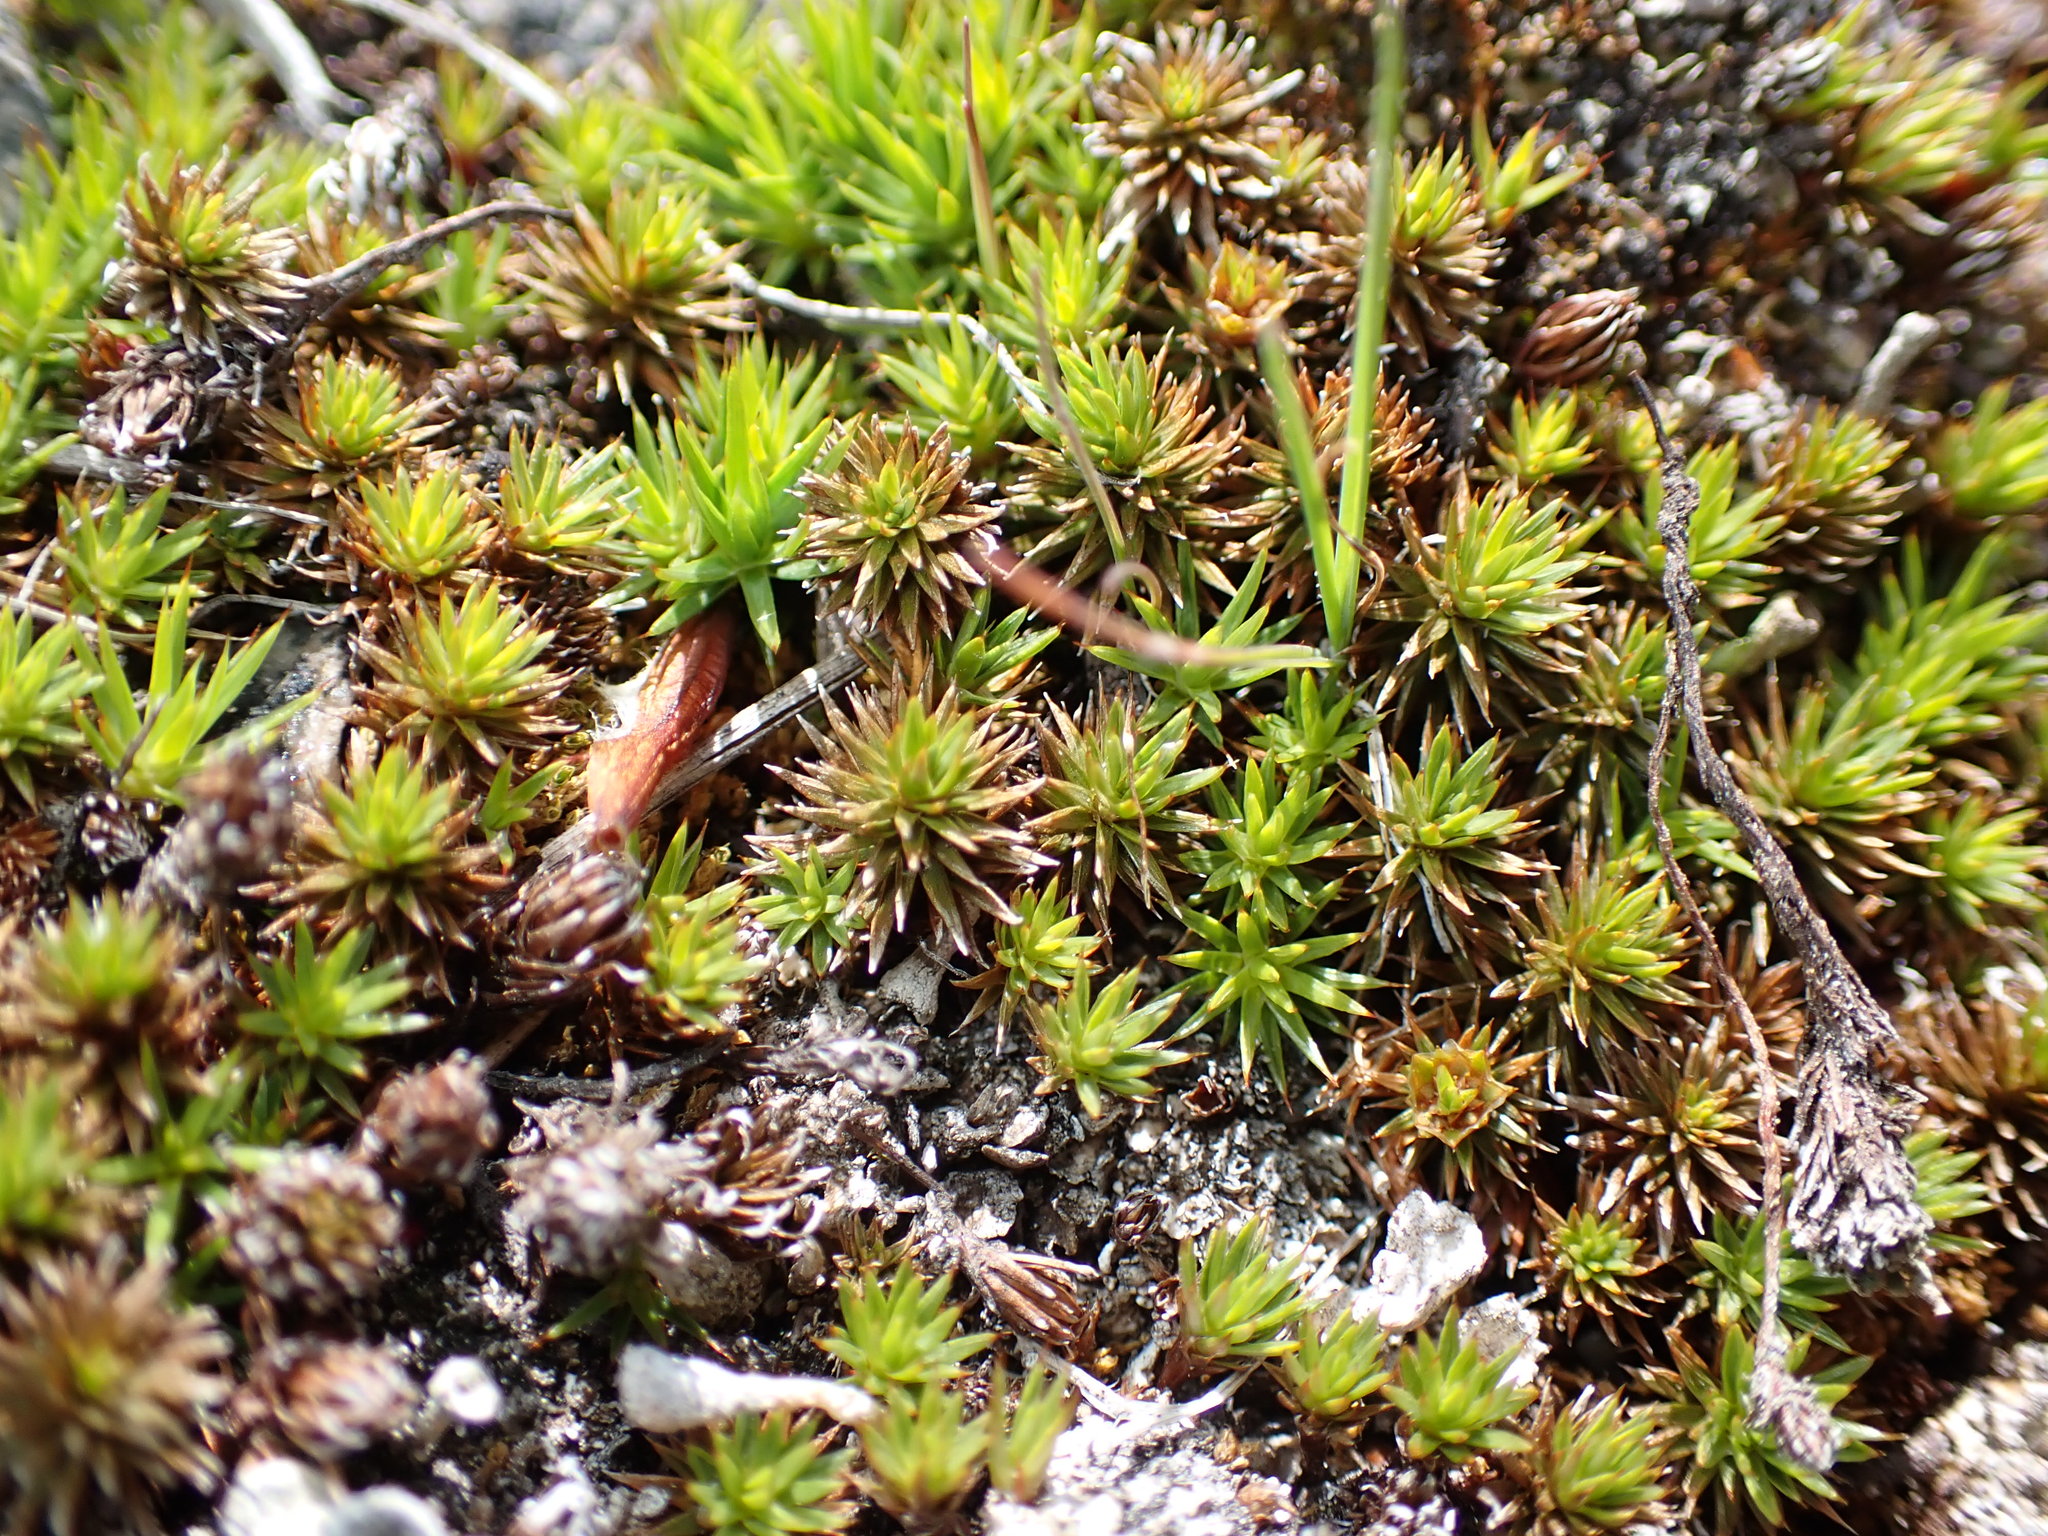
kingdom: Plantae
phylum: Bryophyta
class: Polytrichopsida
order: Polytrichales
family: Polytrichaceae
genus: Polytrichum
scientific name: Polytrichum juniperinum
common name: Juniper haircap moss
